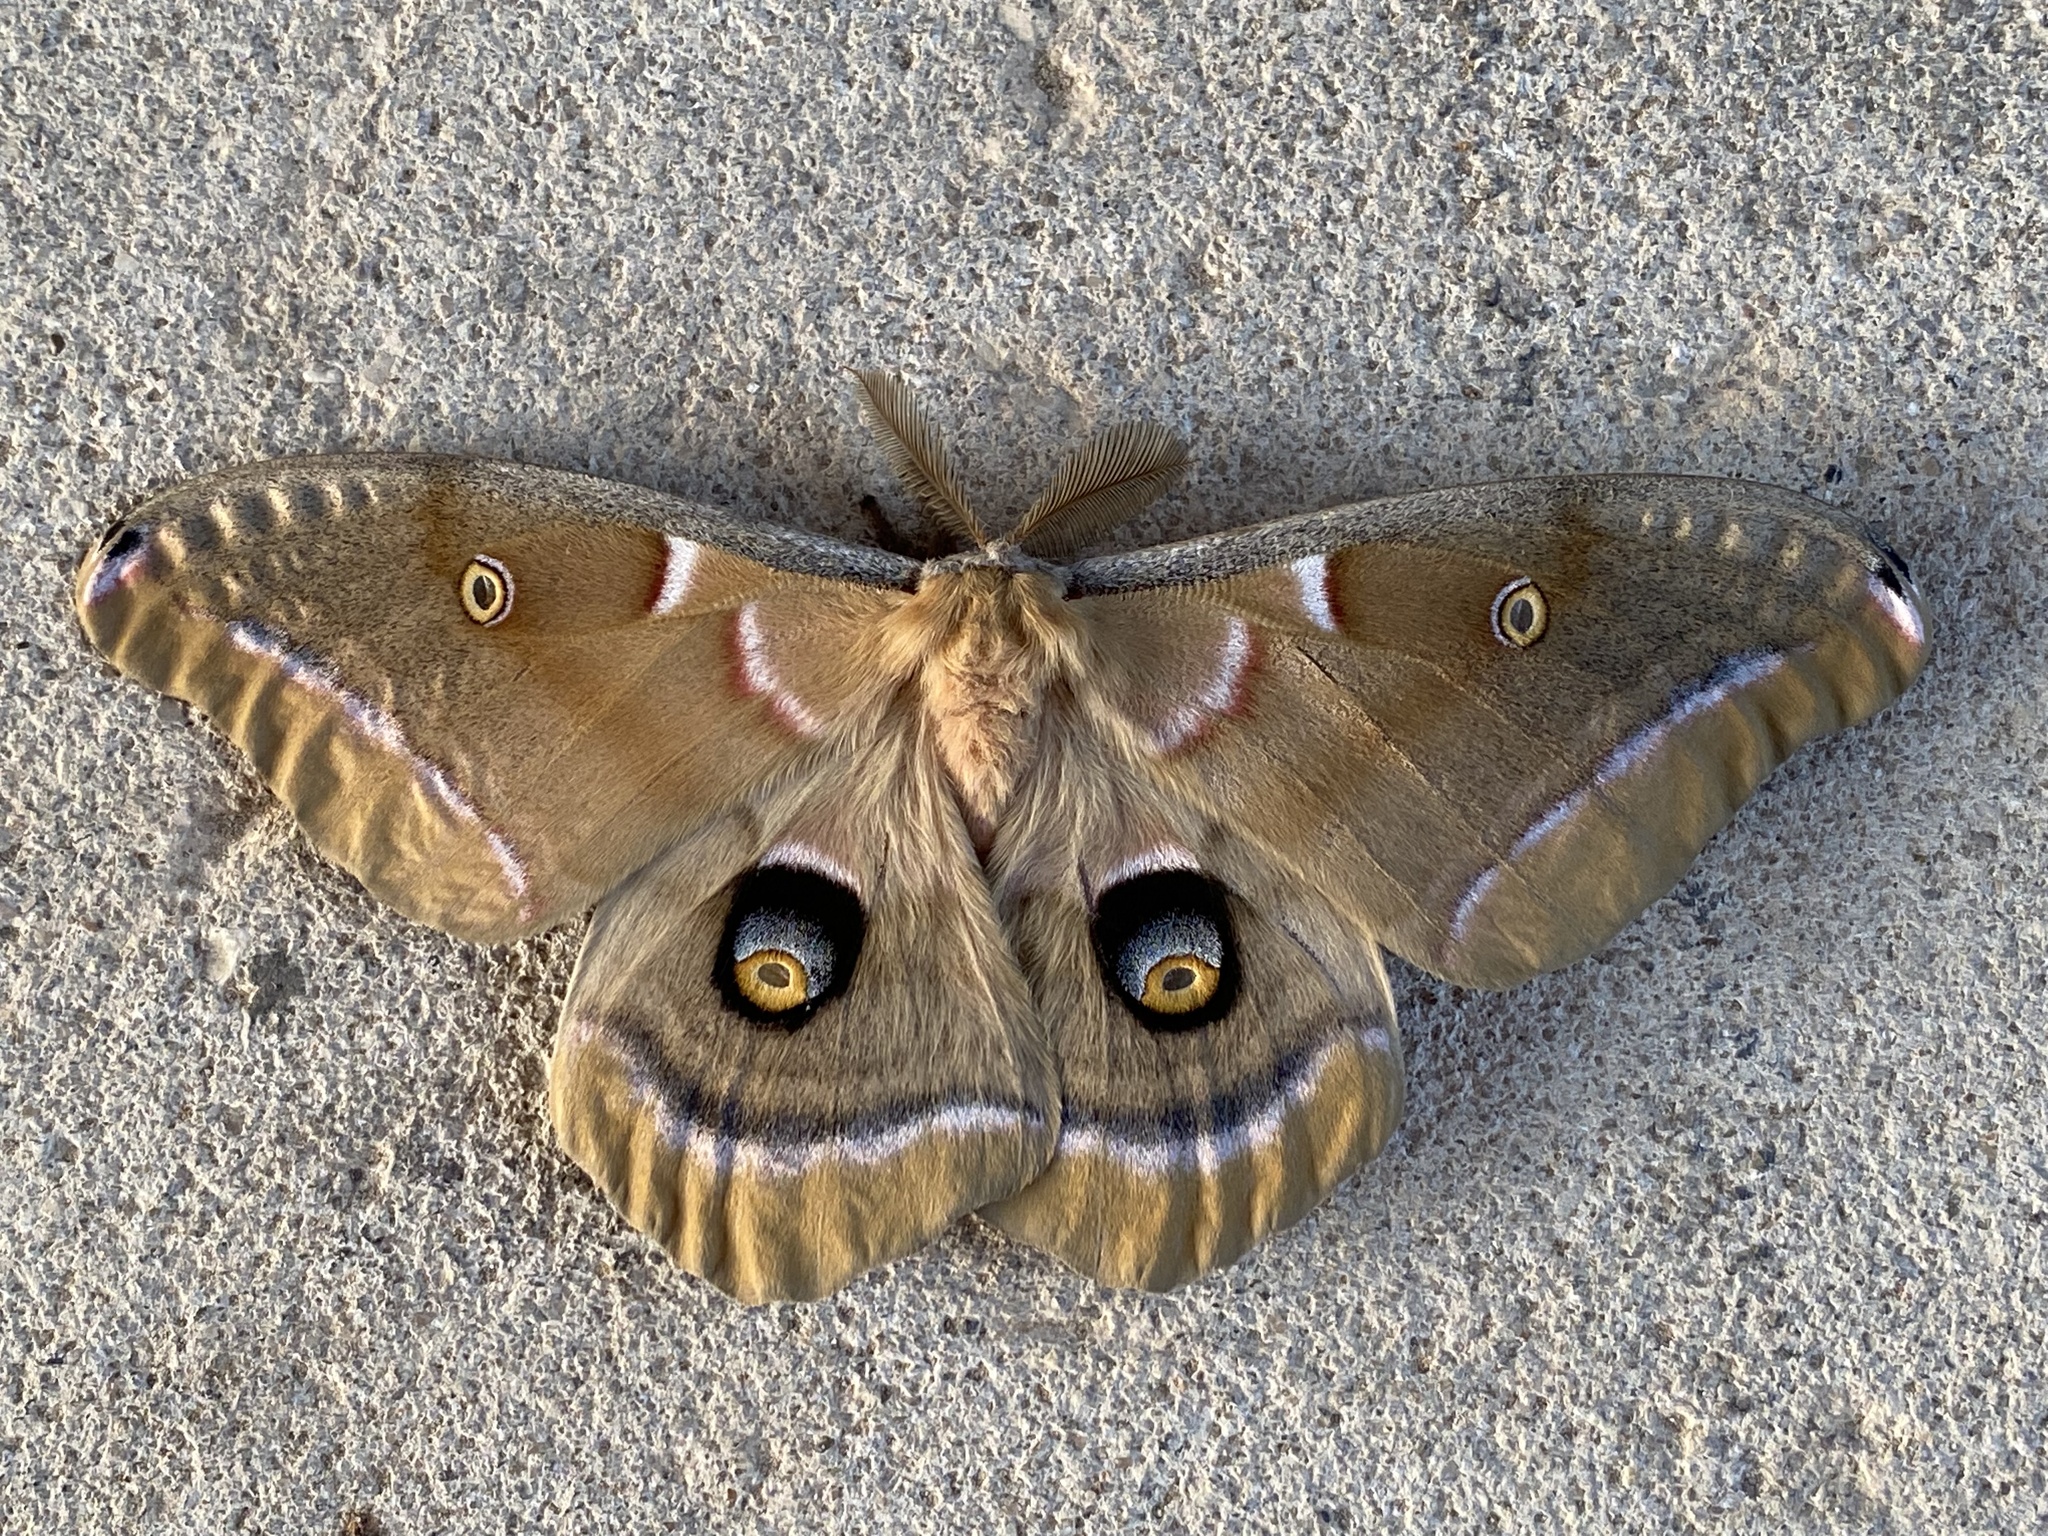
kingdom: Animalia
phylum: Arthropoda
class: Insecta
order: Lepidoptera
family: Saturniidae
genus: Antheraea
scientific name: Antheraea polyphemus
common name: Polyphemus moth
